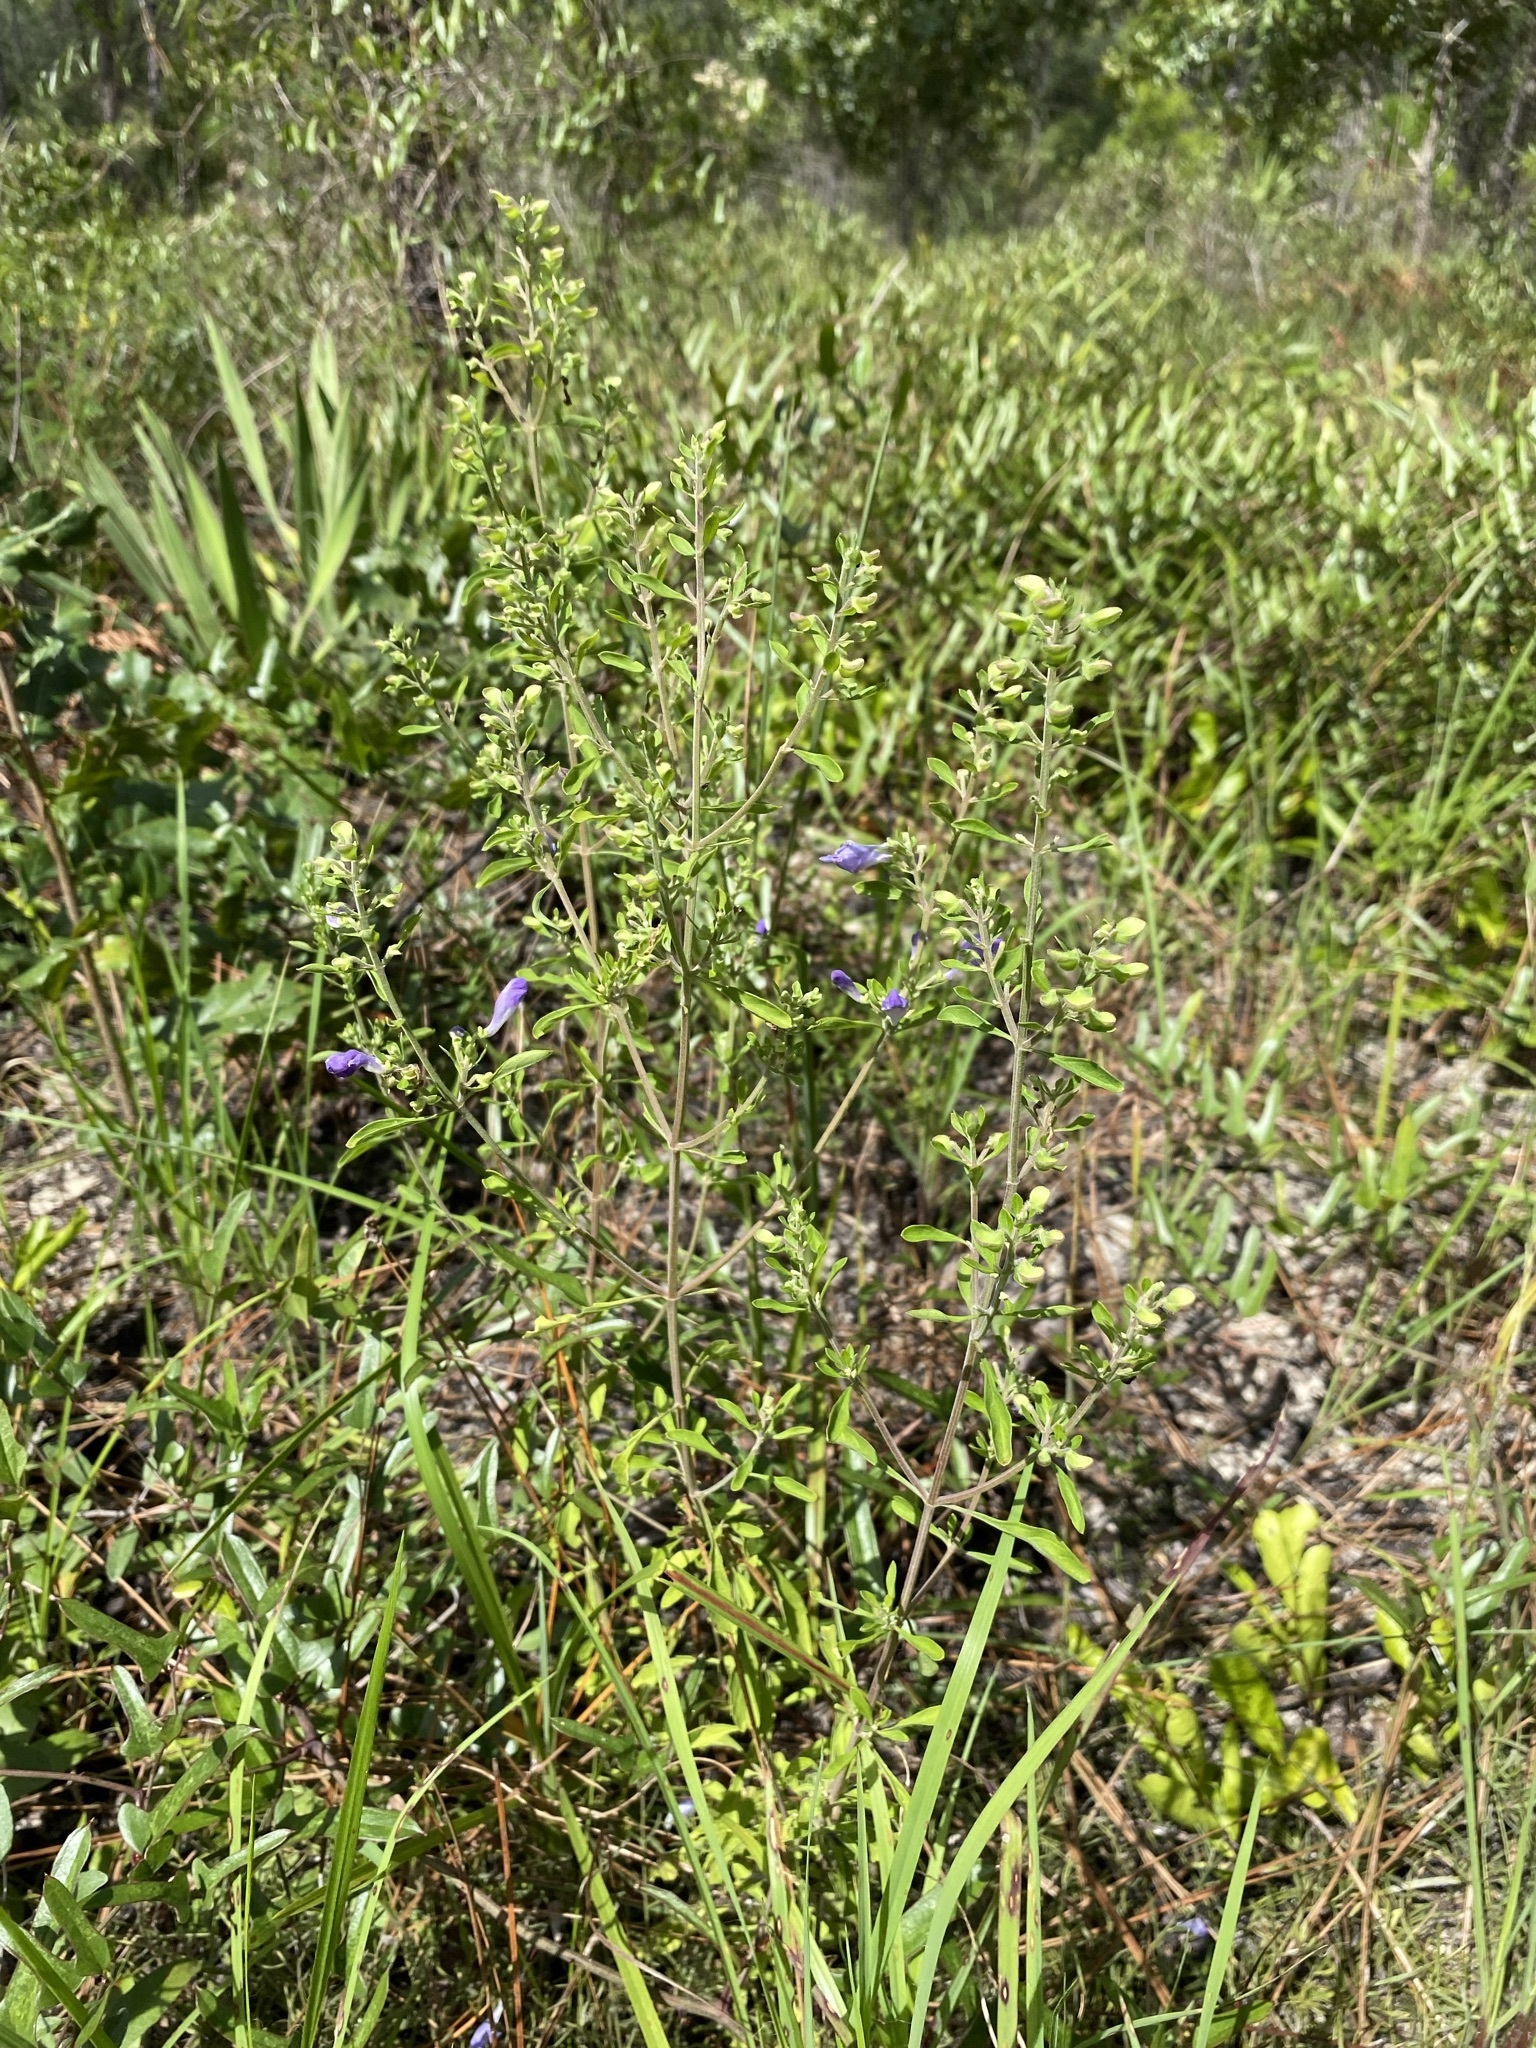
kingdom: Plantae
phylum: Tracheophyta
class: Magnoliopsida
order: Lamiales
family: Lamiaceae
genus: Scutellaria
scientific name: Scutellaria integrifolia
